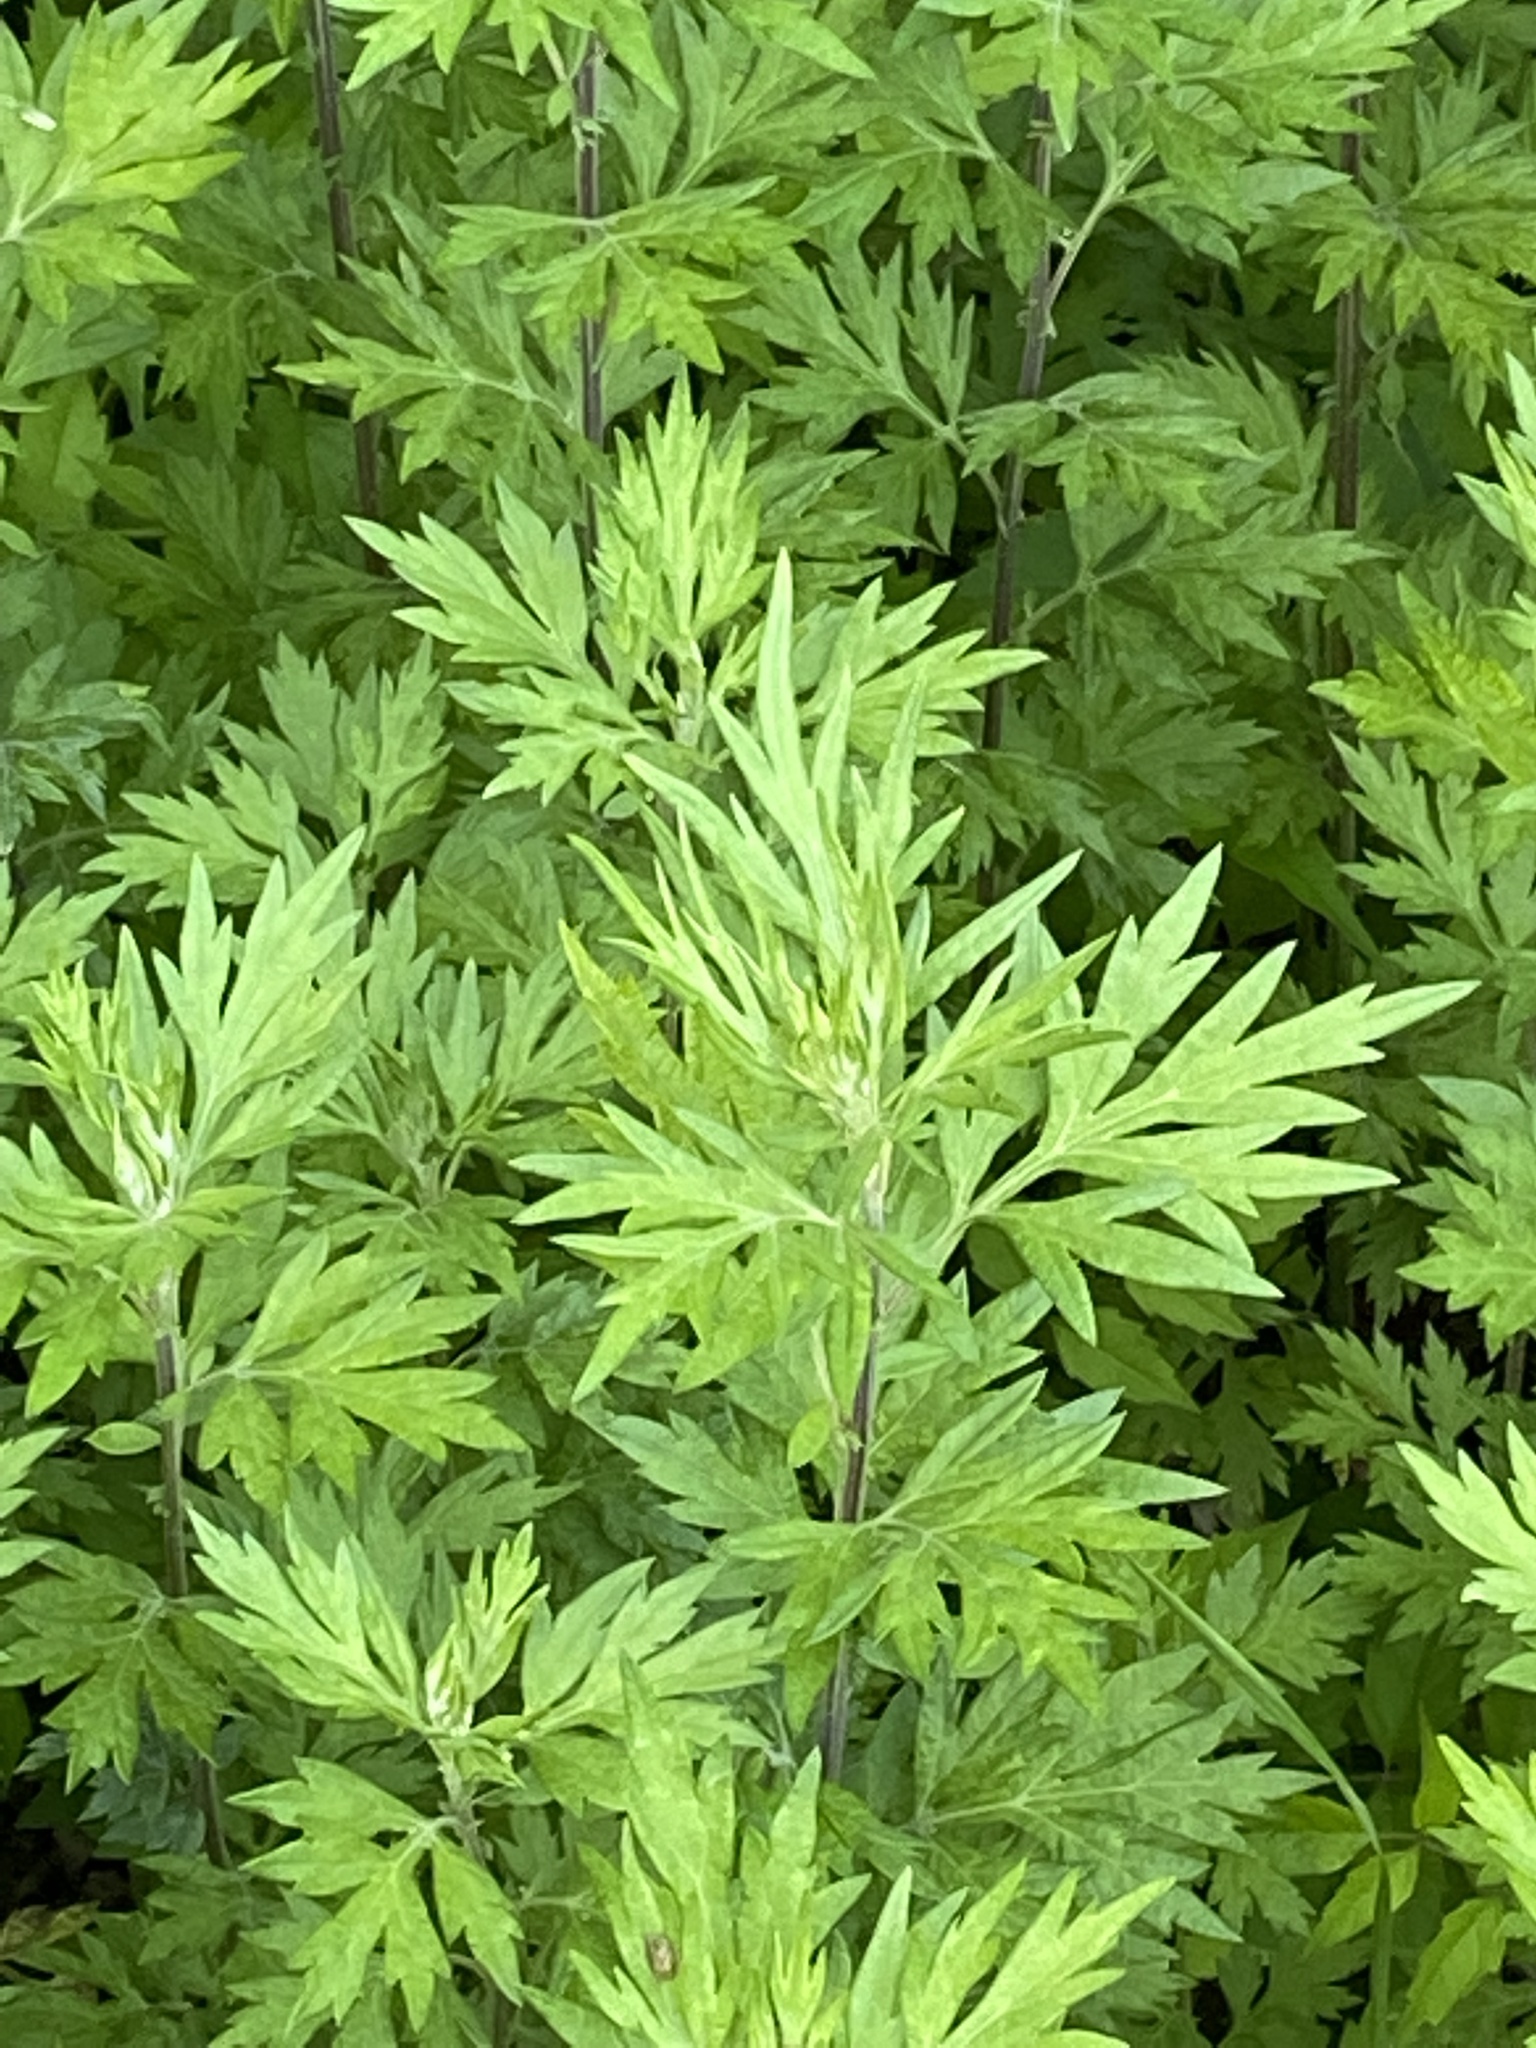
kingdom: Plantae
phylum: Tracheophyta
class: Magnoliopsida
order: Asterales
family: Asteraceae
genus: Artemisia
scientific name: Artemisia vulgaris
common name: Mugwort
